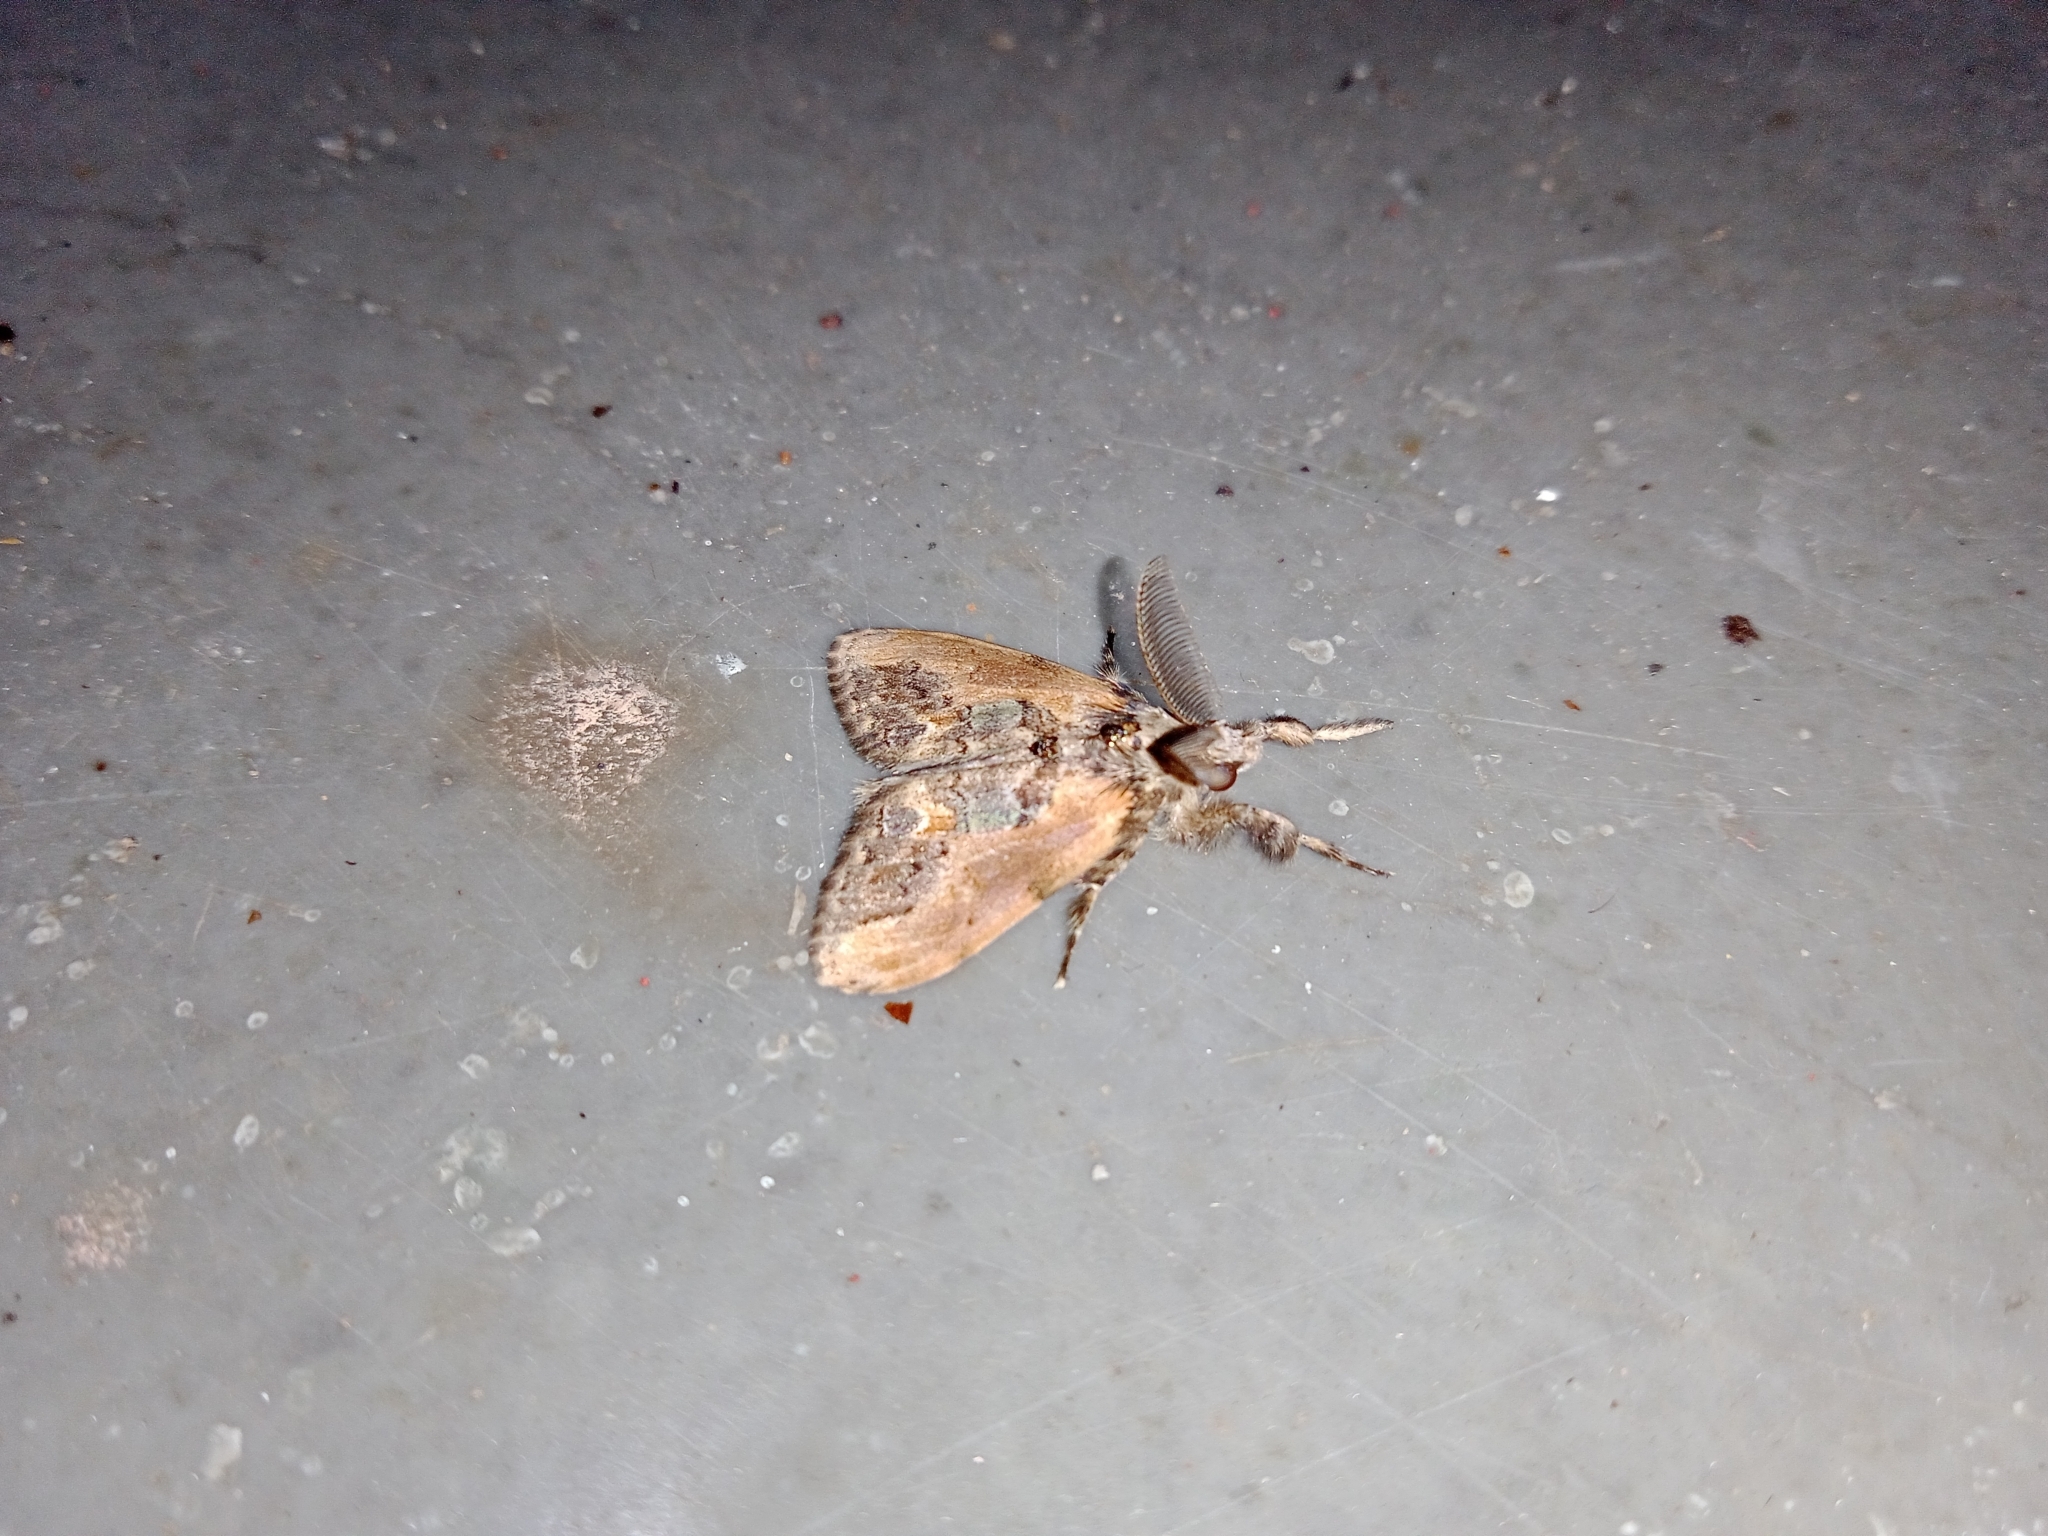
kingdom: Animalia
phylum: Arthropoda
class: Insecta
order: Lepidoptera
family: Erebidae
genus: Olene
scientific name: Olene mendosa
